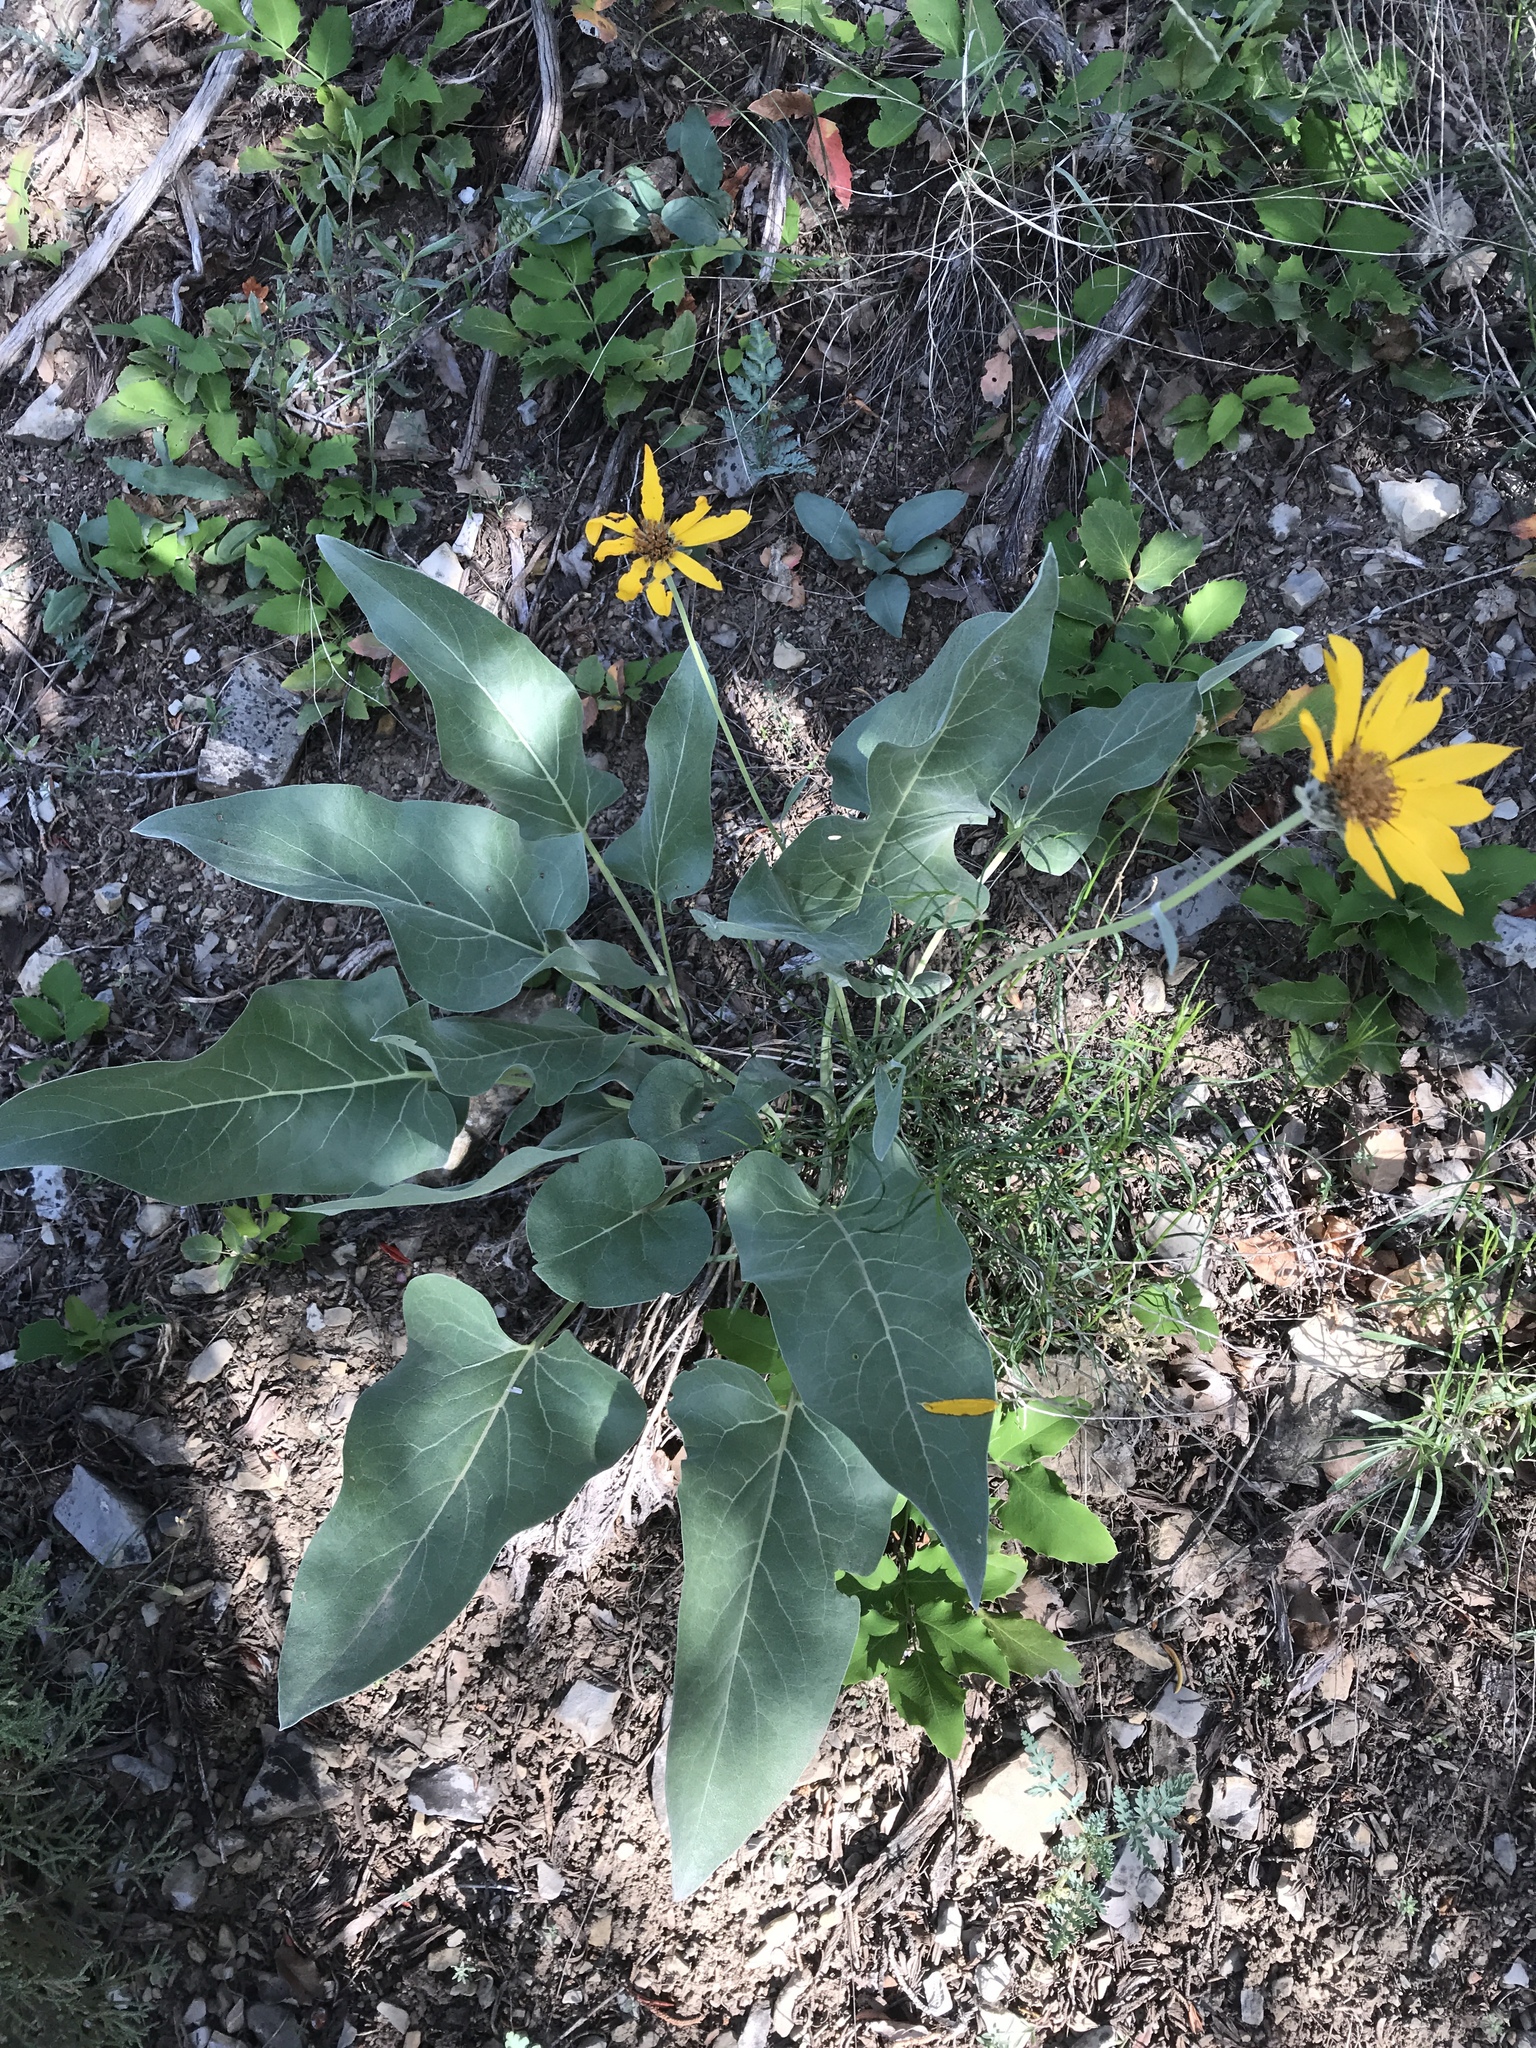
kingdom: Plantae
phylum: Tracheophyta
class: Magnoliopsida
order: Asterales
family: Asteraceae
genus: Wyethia
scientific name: Wyethia sagittata
